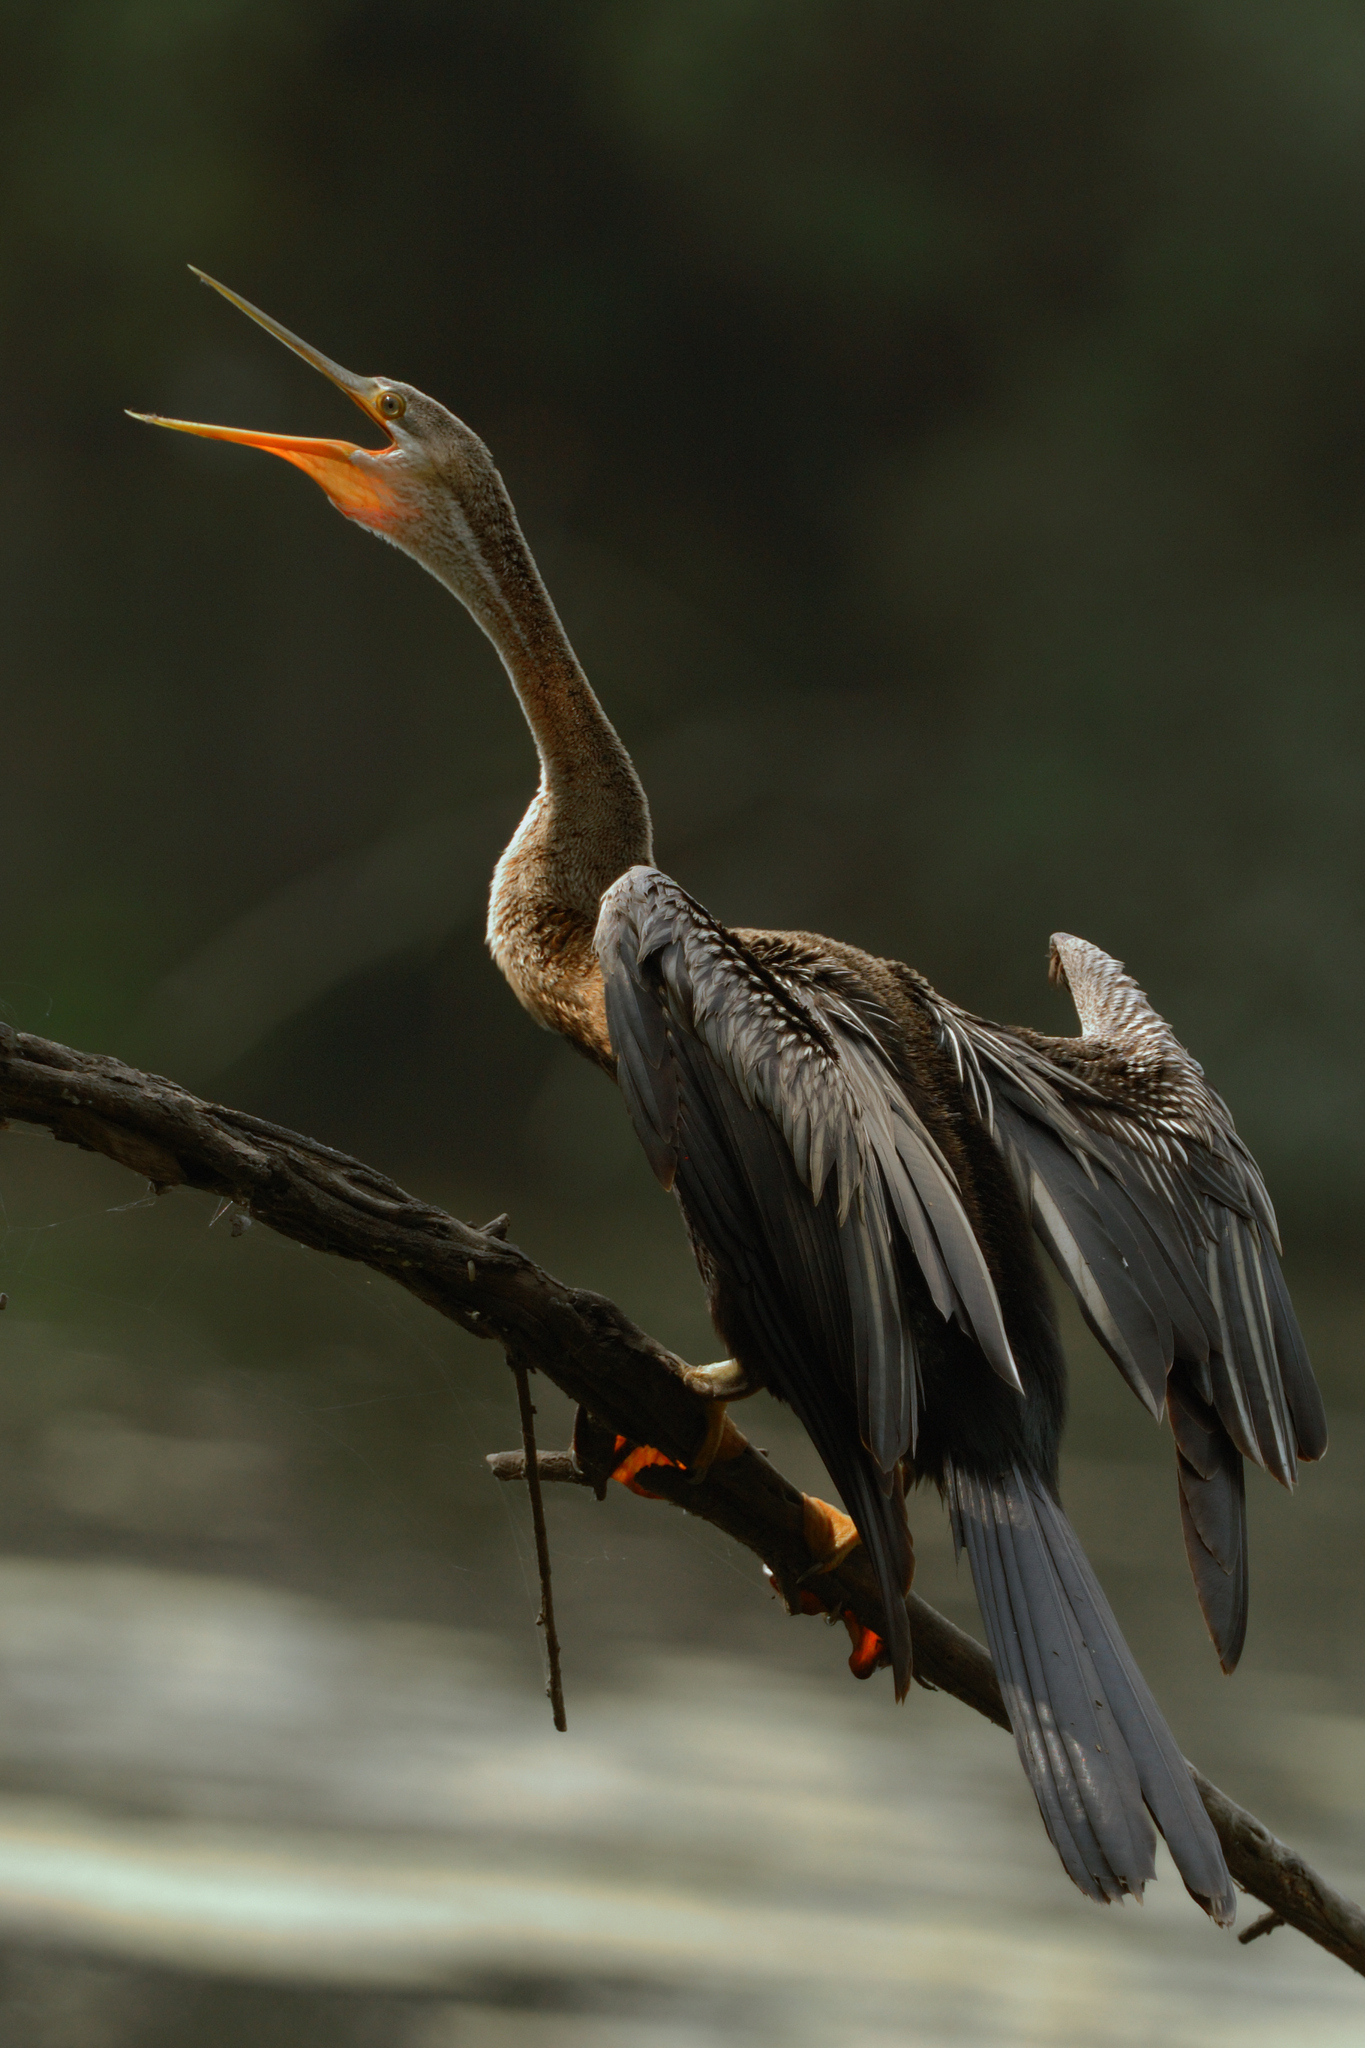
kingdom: Animalia
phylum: Chordata
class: Aves
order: Suliformes
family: Anhingidae
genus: Anhinga
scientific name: Anhinga melanogaster
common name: Oriental darter
